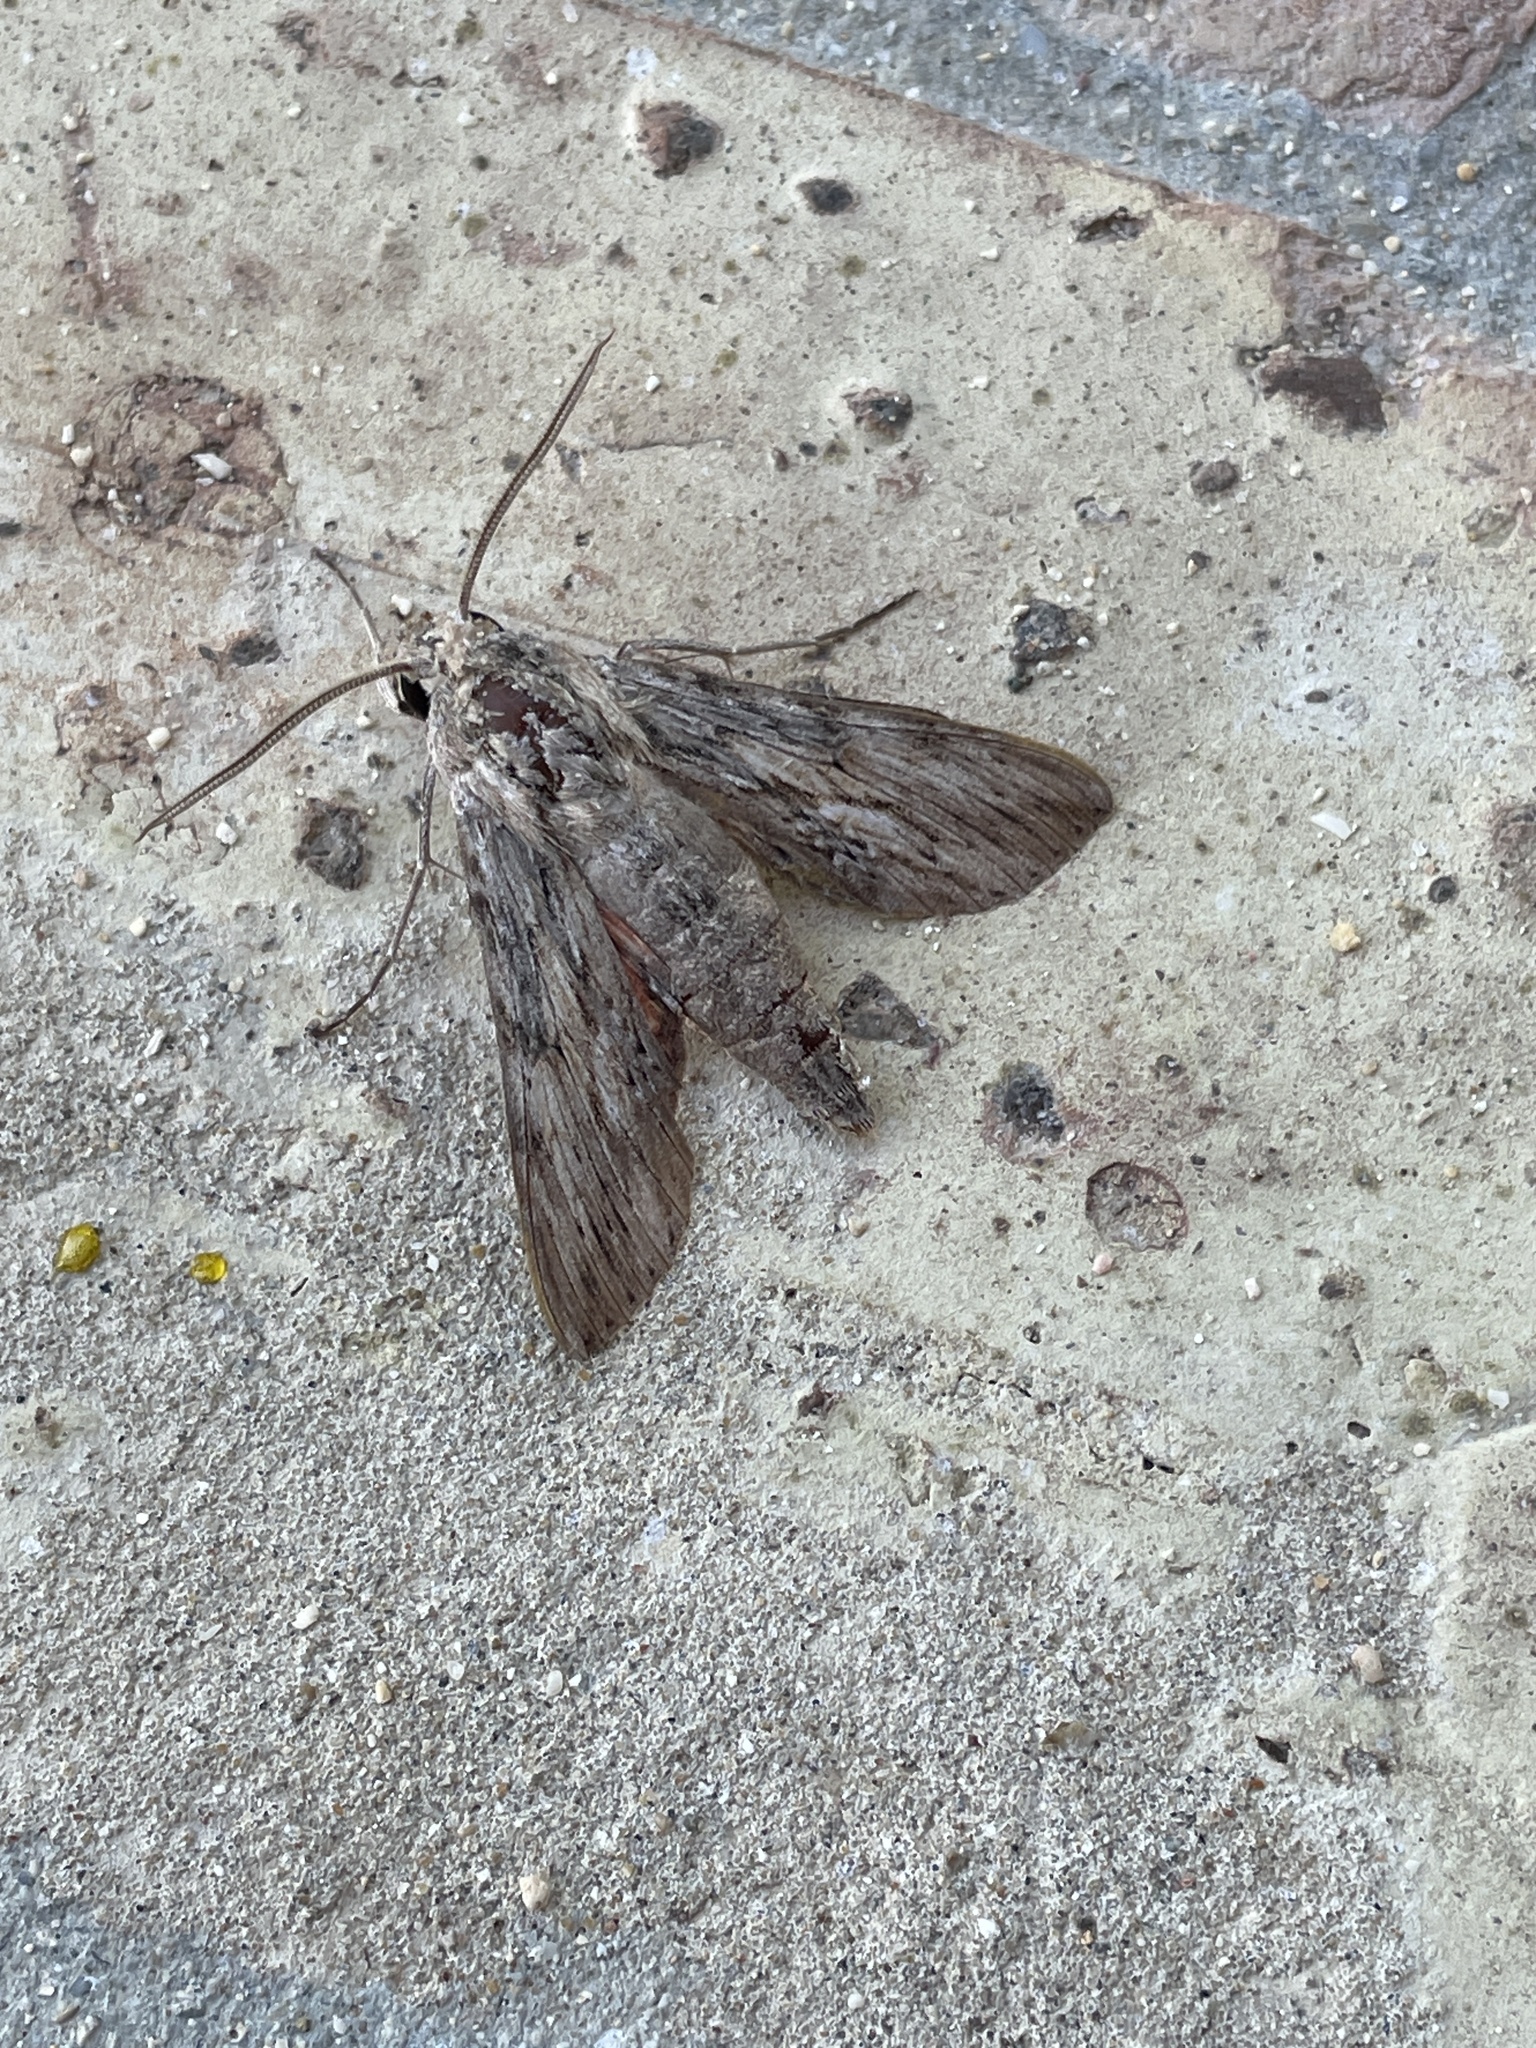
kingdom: Animalia
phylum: Arthropoda
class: Insecta
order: Lepidoptera
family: Sphingidae
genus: Erinnyis
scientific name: Erinnyis obscura
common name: Obscure sphinx
